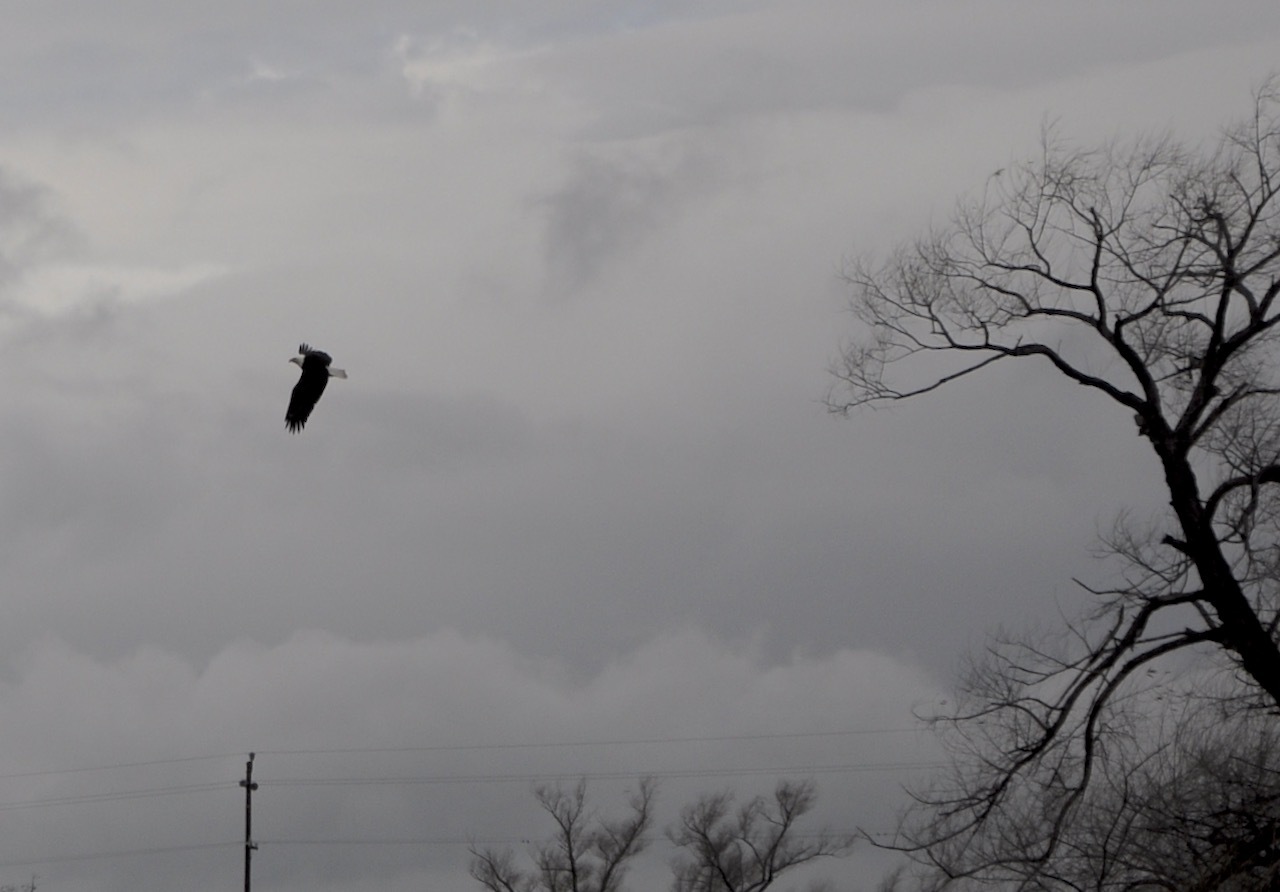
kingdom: Animalia
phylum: Chordata
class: Aves
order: Accipitriformes
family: Accipitridae
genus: Haliaeetus
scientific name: Haliaeetus leucocephalus
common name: Bald eagle
